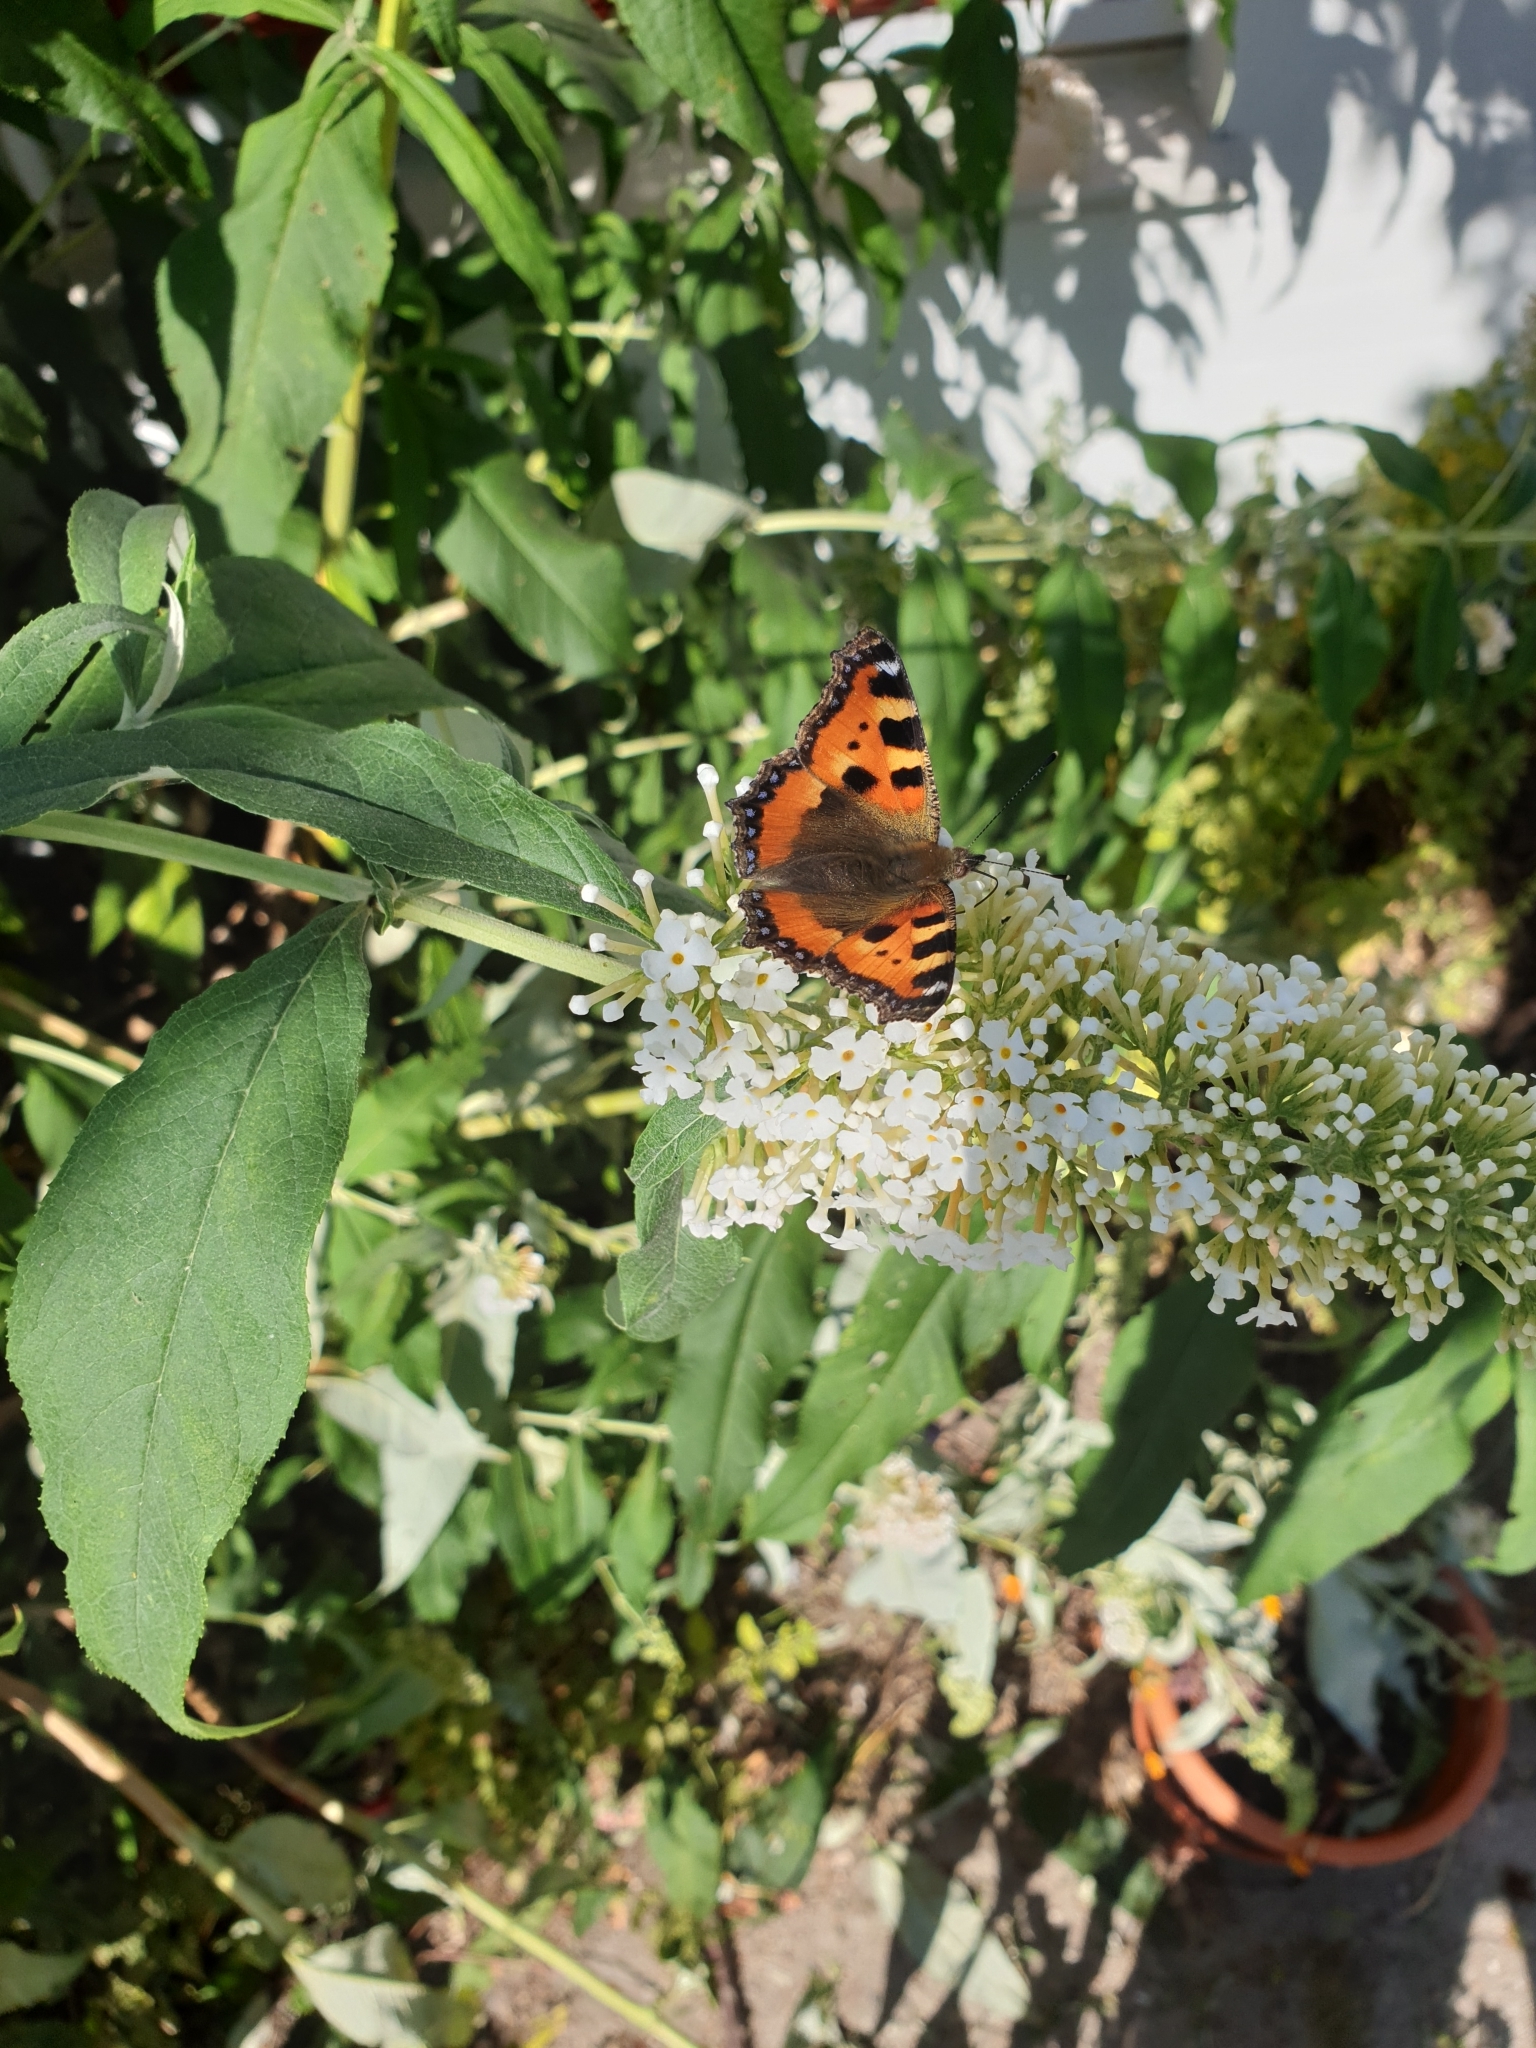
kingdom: Animalia
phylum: Arthropoda
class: Insecta
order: Lepidoptera
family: Nymphalidae
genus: Aglais
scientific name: Aglais urticae
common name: Small tortoiseshell
